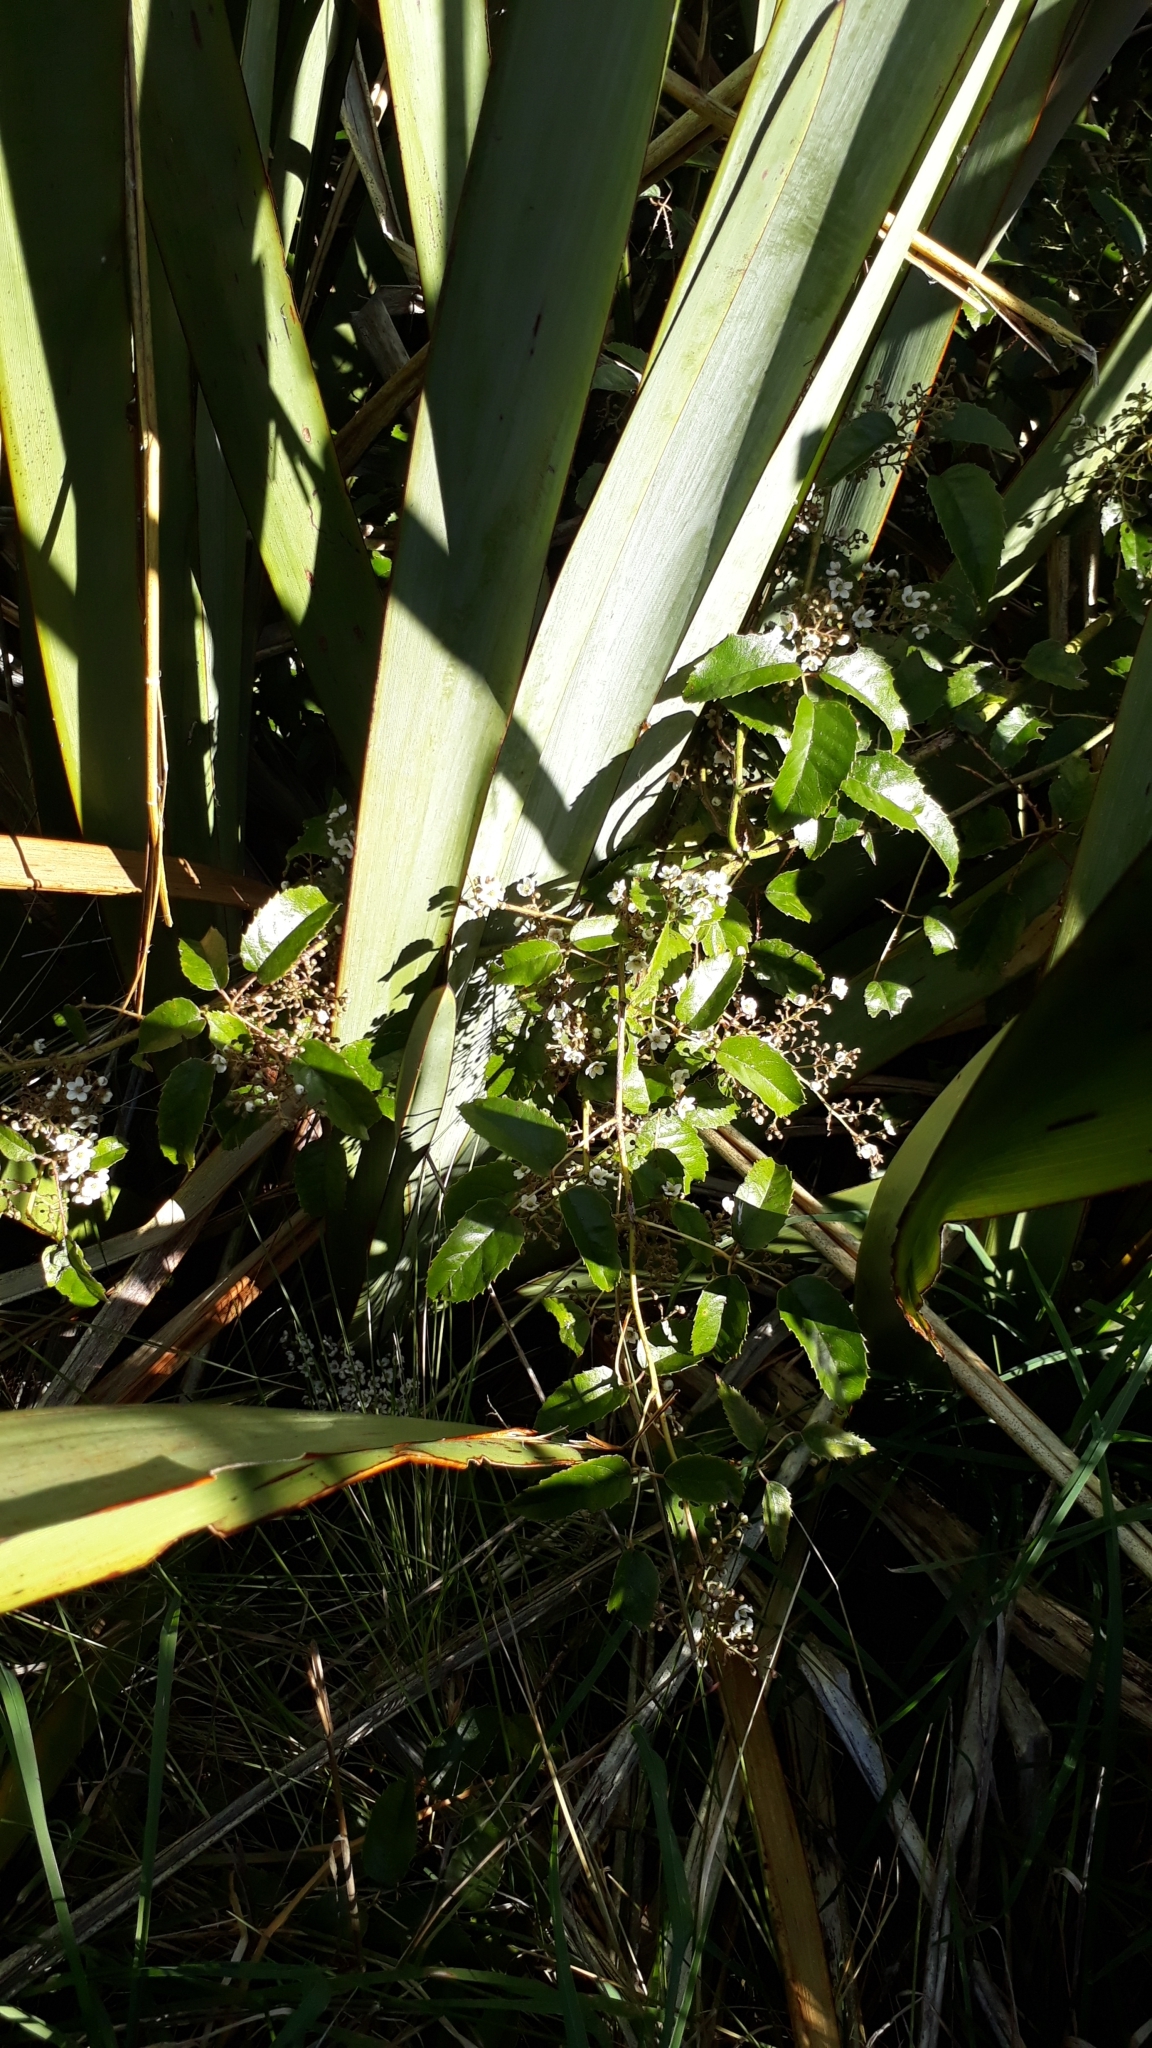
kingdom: Plantae
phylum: Tracheophyta
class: Magnoliopsida
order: Rosales
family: Rosaceae
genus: Rubus
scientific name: Rubus cissoides
